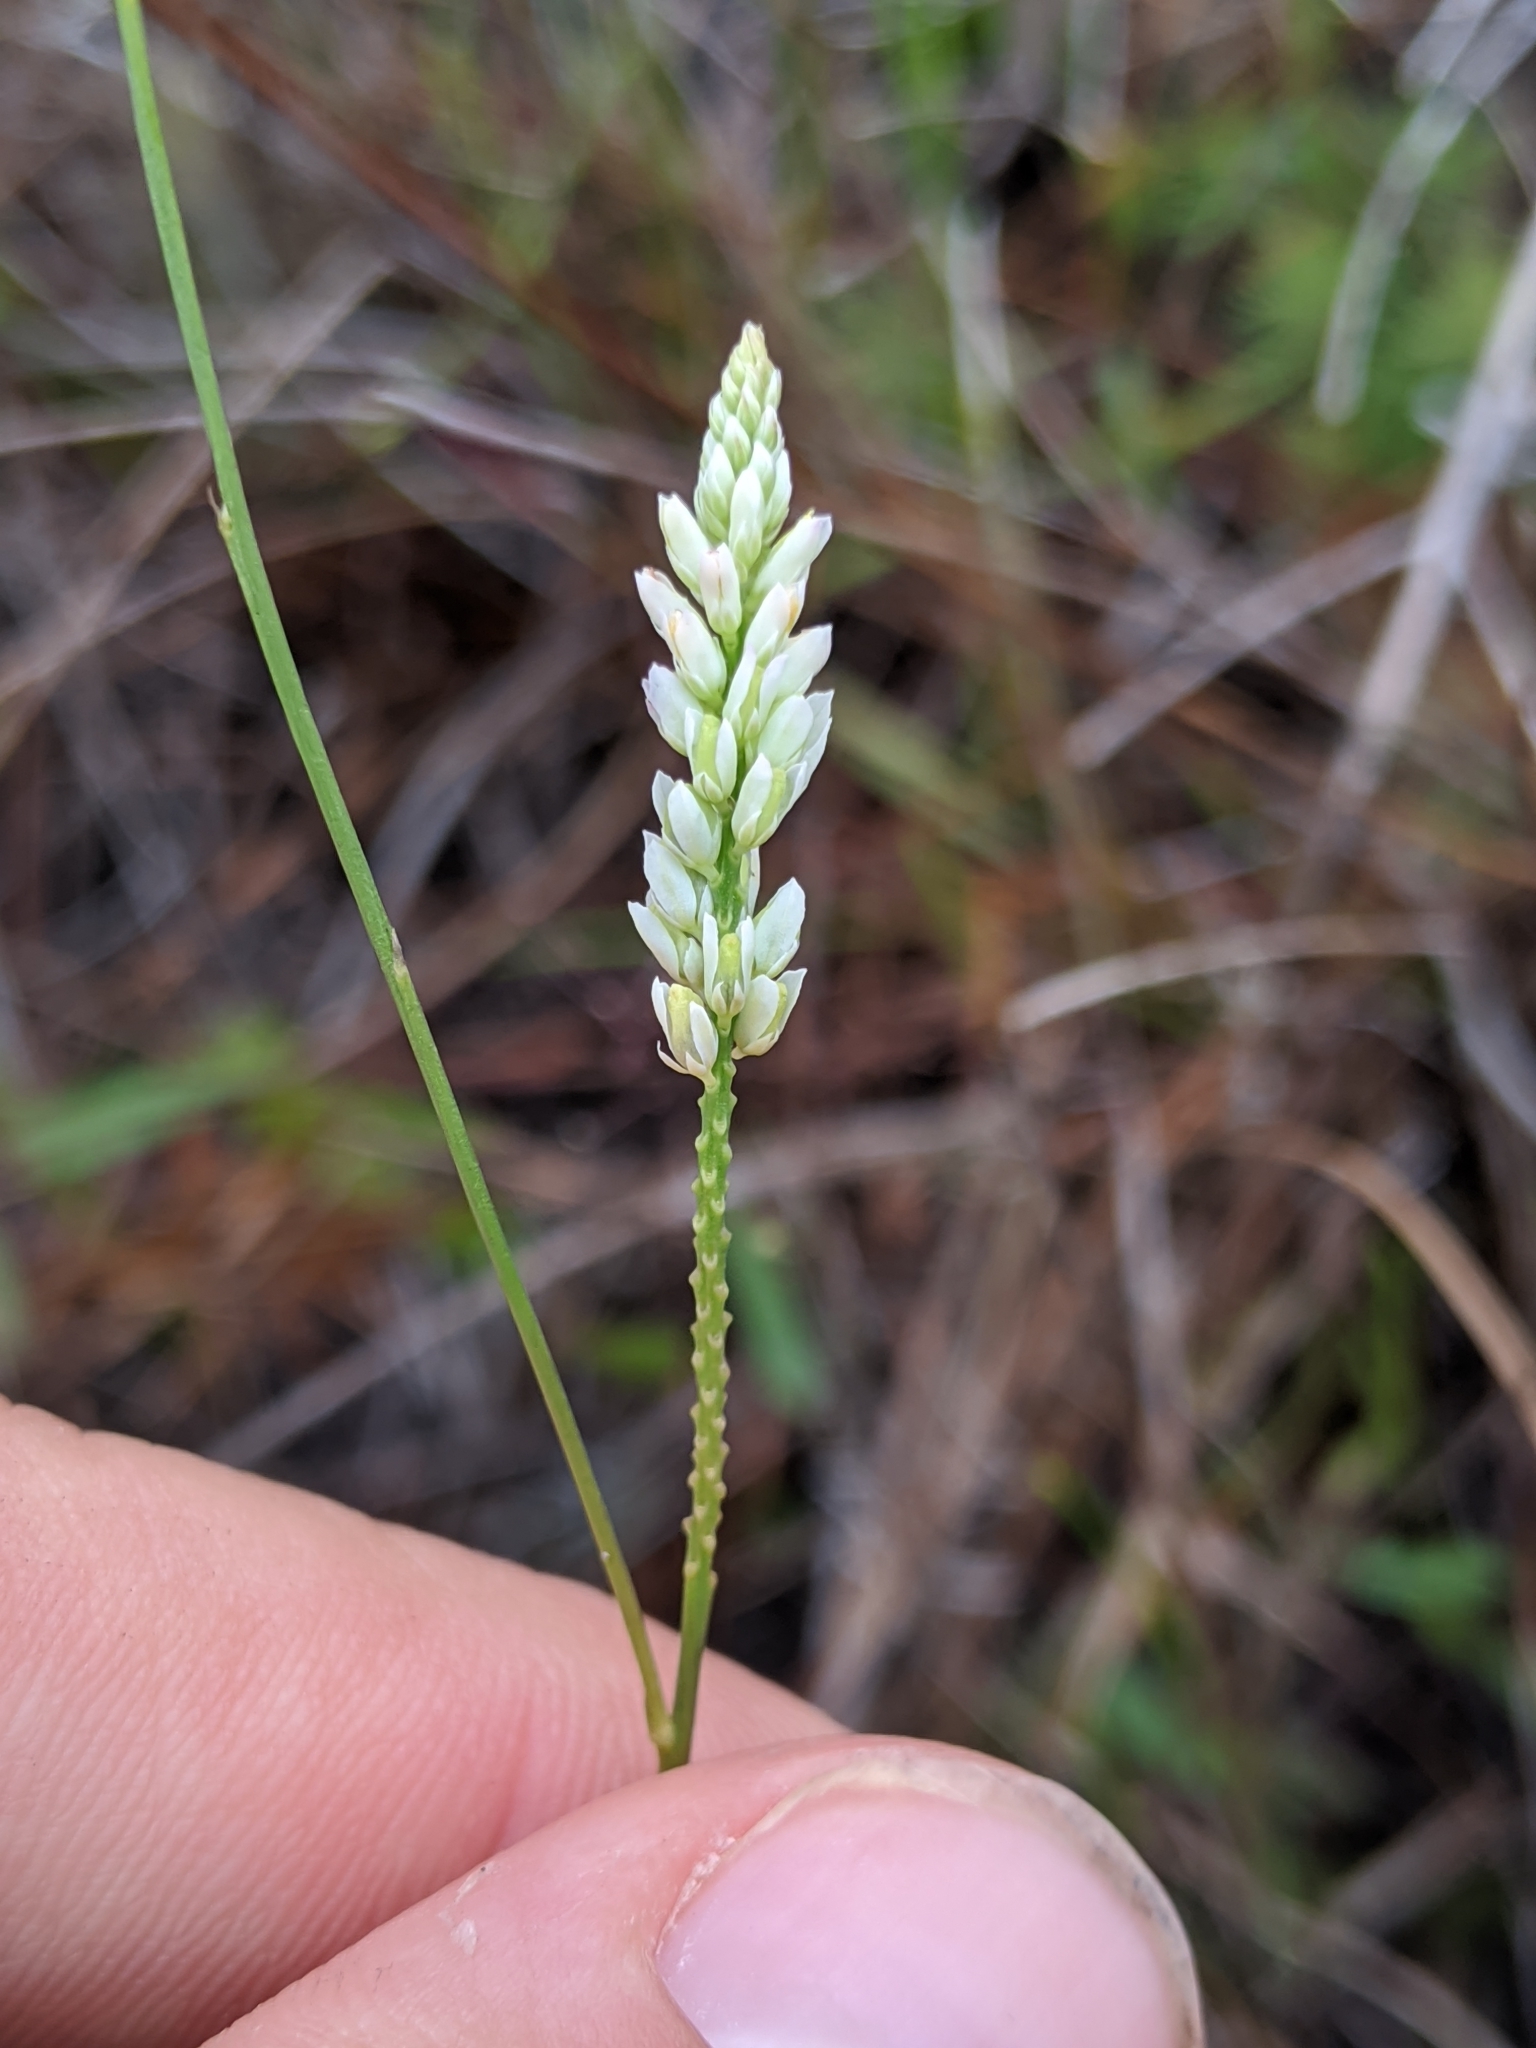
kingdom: Plantae
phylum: Tracheophyta
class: Magnoliopsida
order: Fabales
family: Polygalaceae
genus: Polygala
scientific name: Polygala setacea
